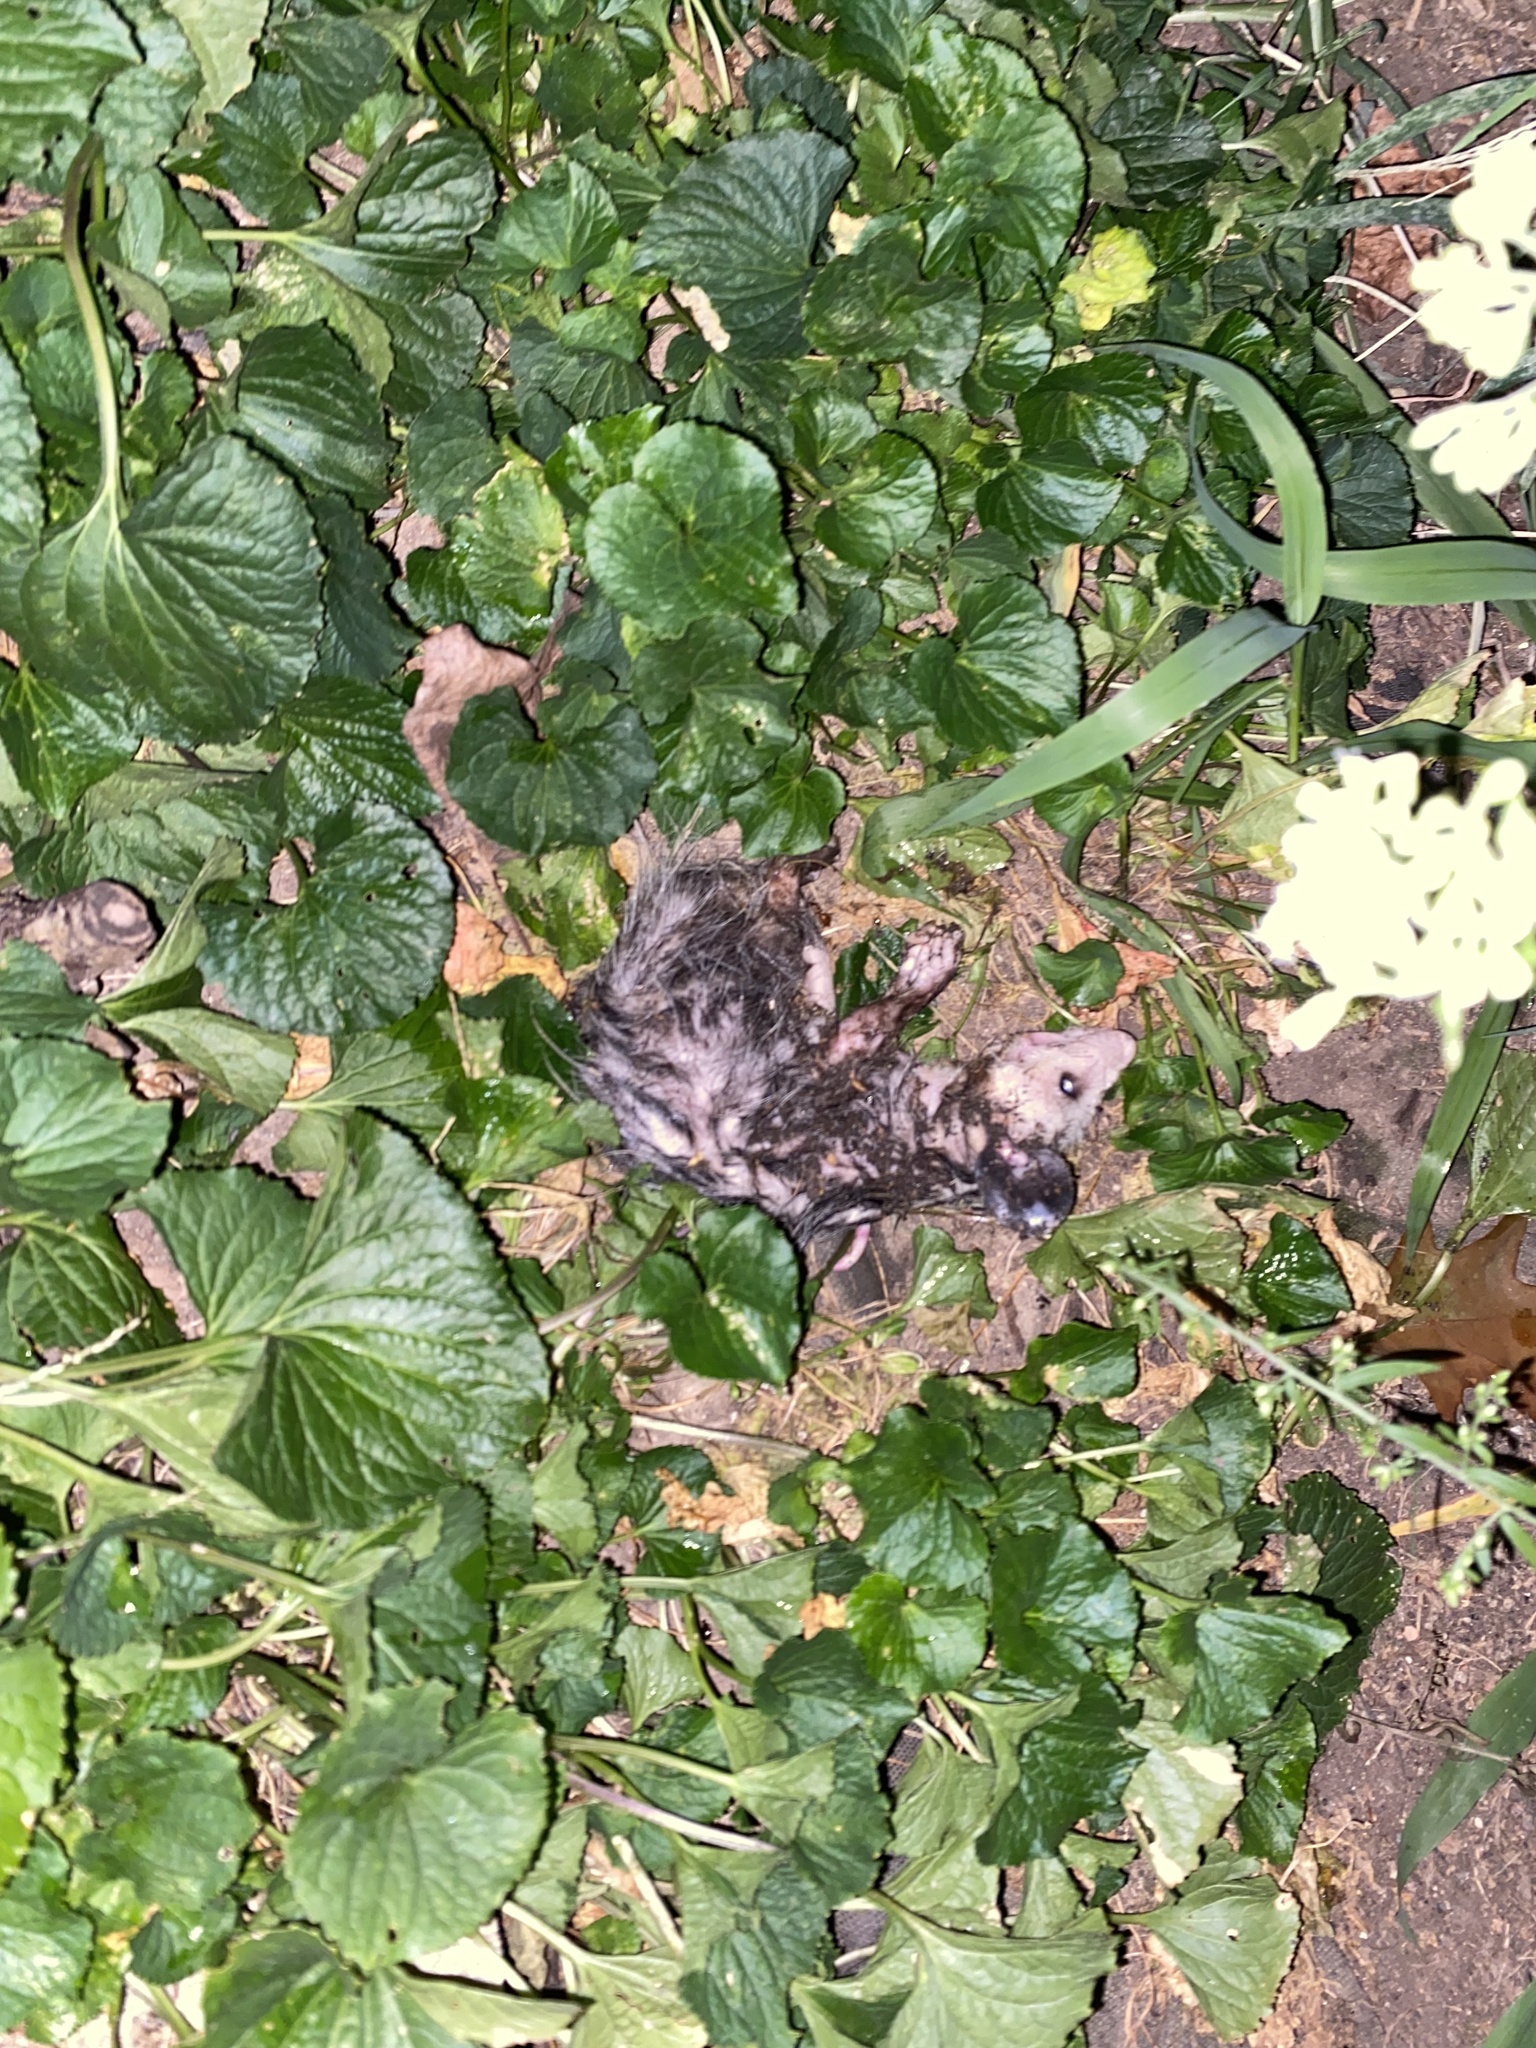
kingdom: Animalia
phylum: Chordata
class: Mammalia
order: Didelphimorphia
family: Didelphidae
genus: Didelphis
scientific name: Didelphis virginiana
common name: Virginia opossum
